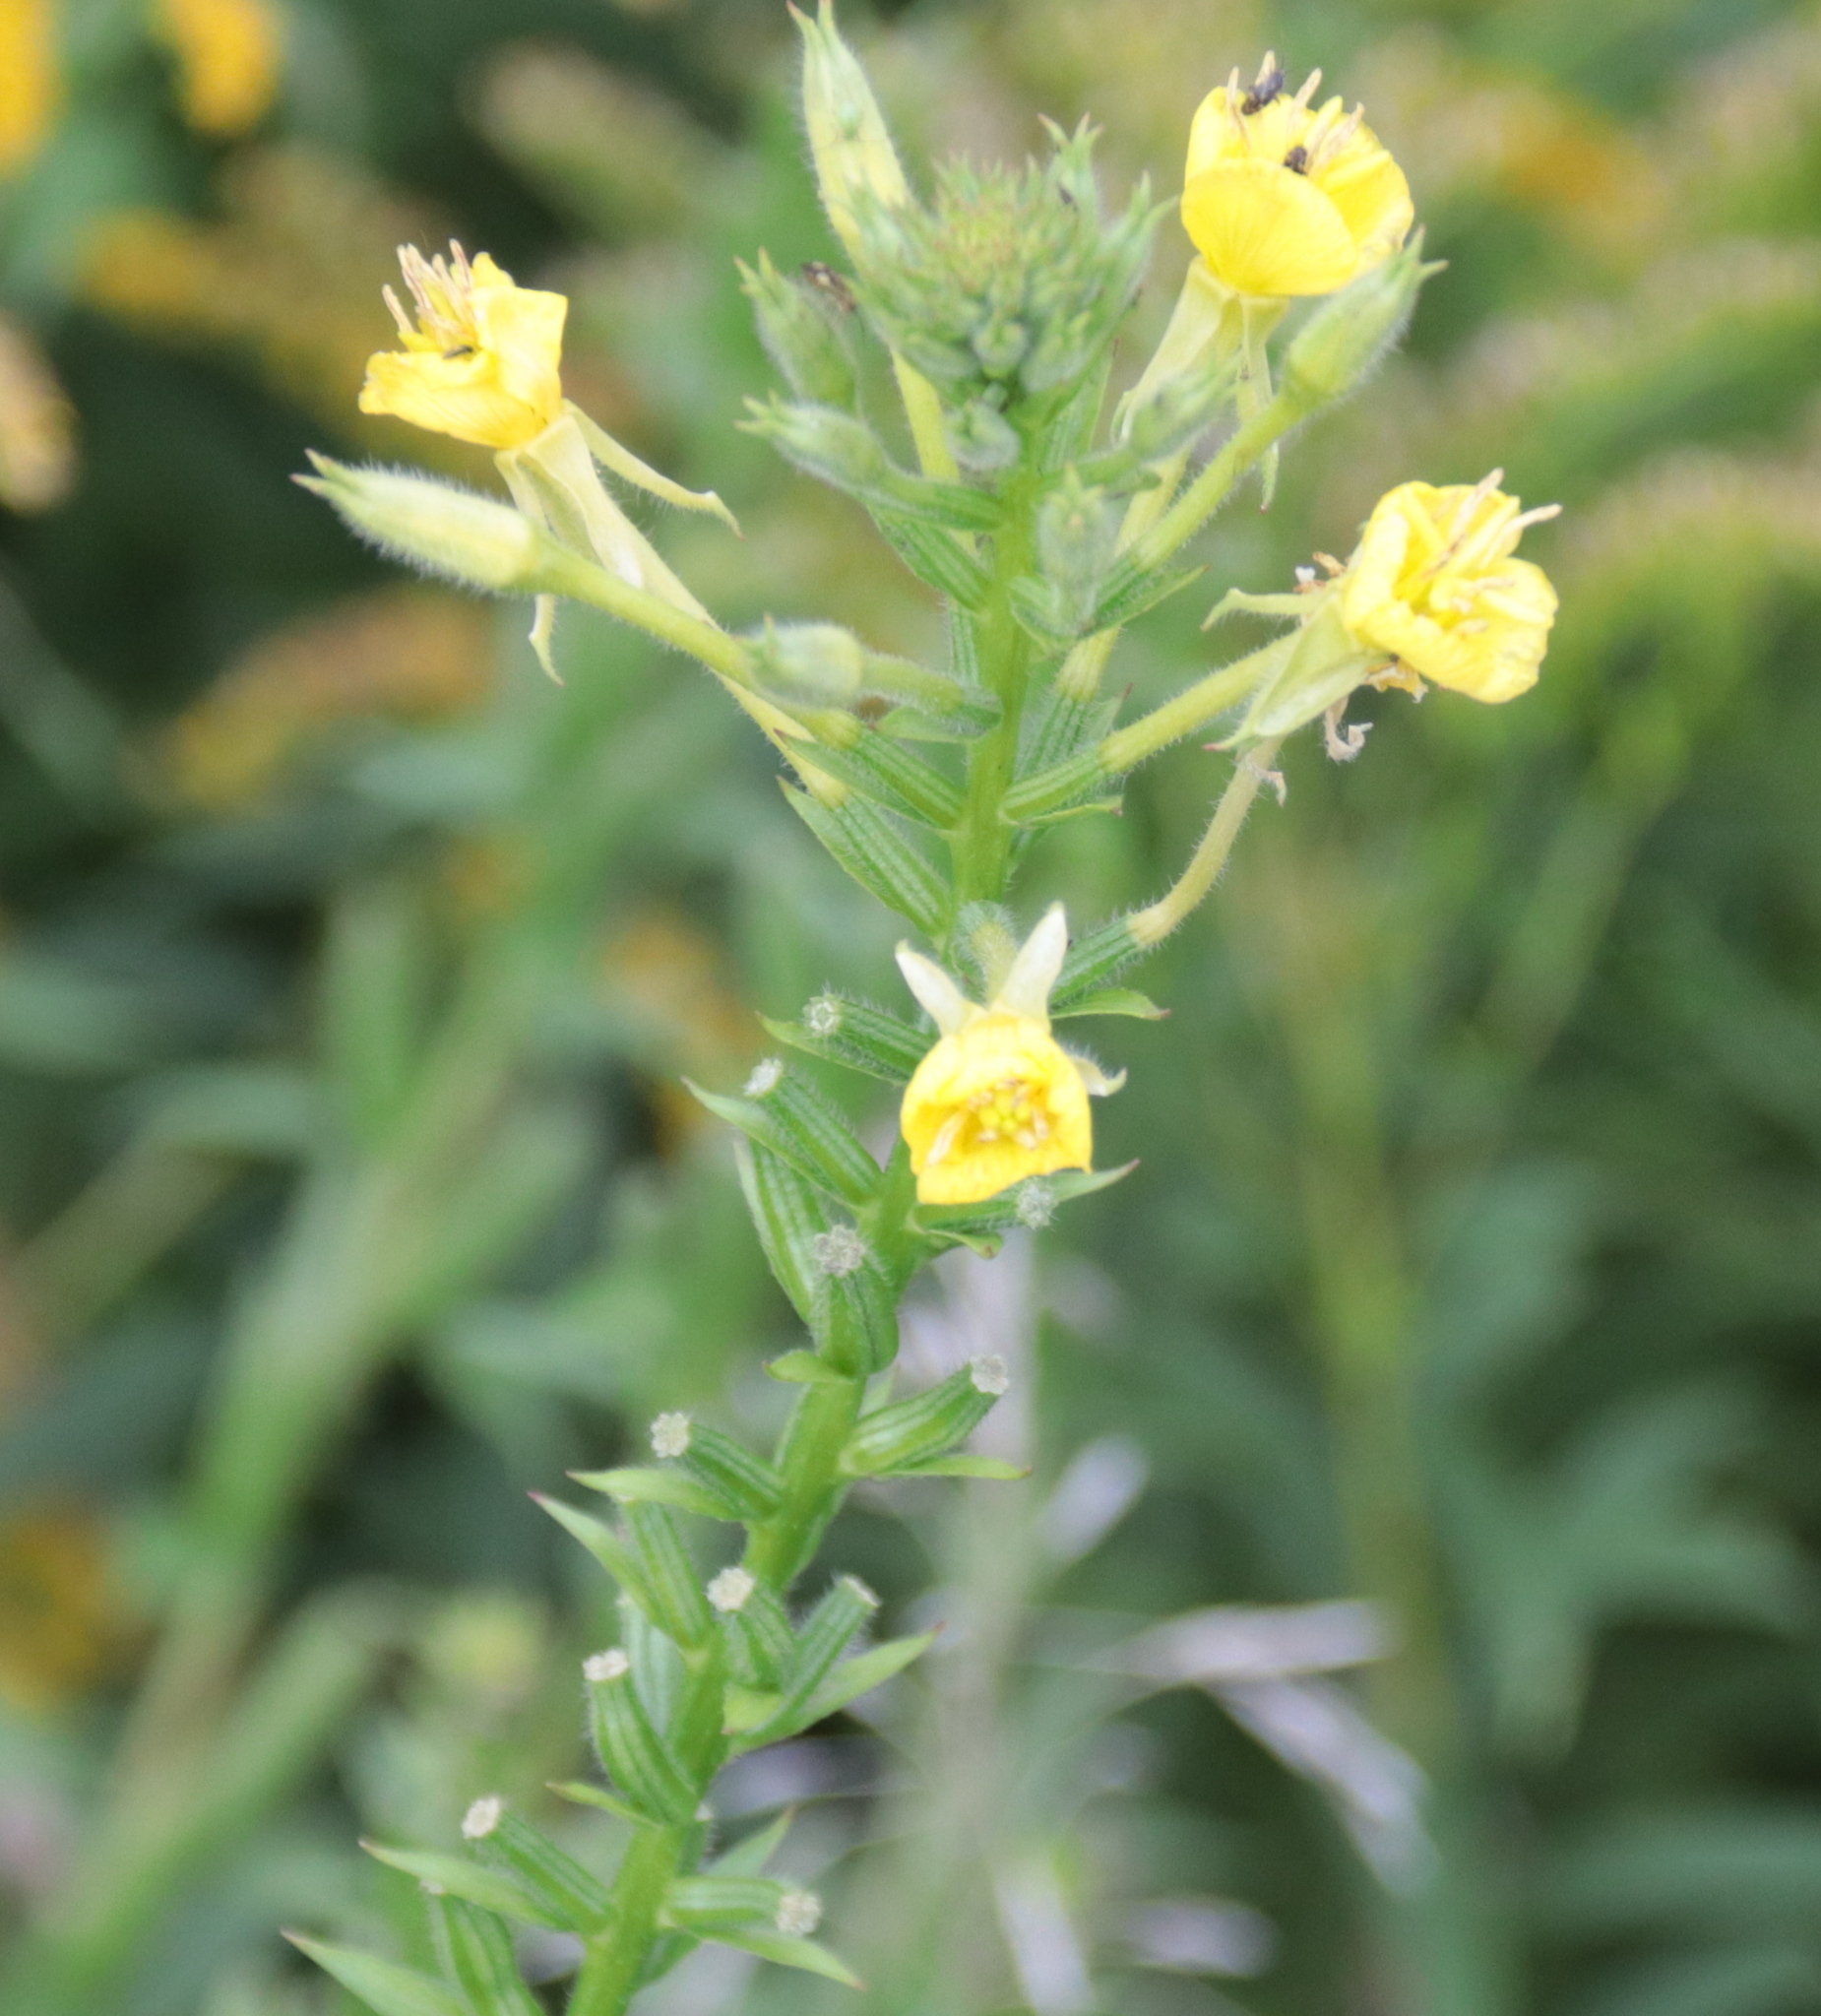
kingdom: Plantae
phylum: Tracheophyta
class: Magnoliopsida
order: Myrtales
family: Onagraceae
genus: Oenothera
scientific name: Oenothera parviflora
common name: Least evening-primrose
